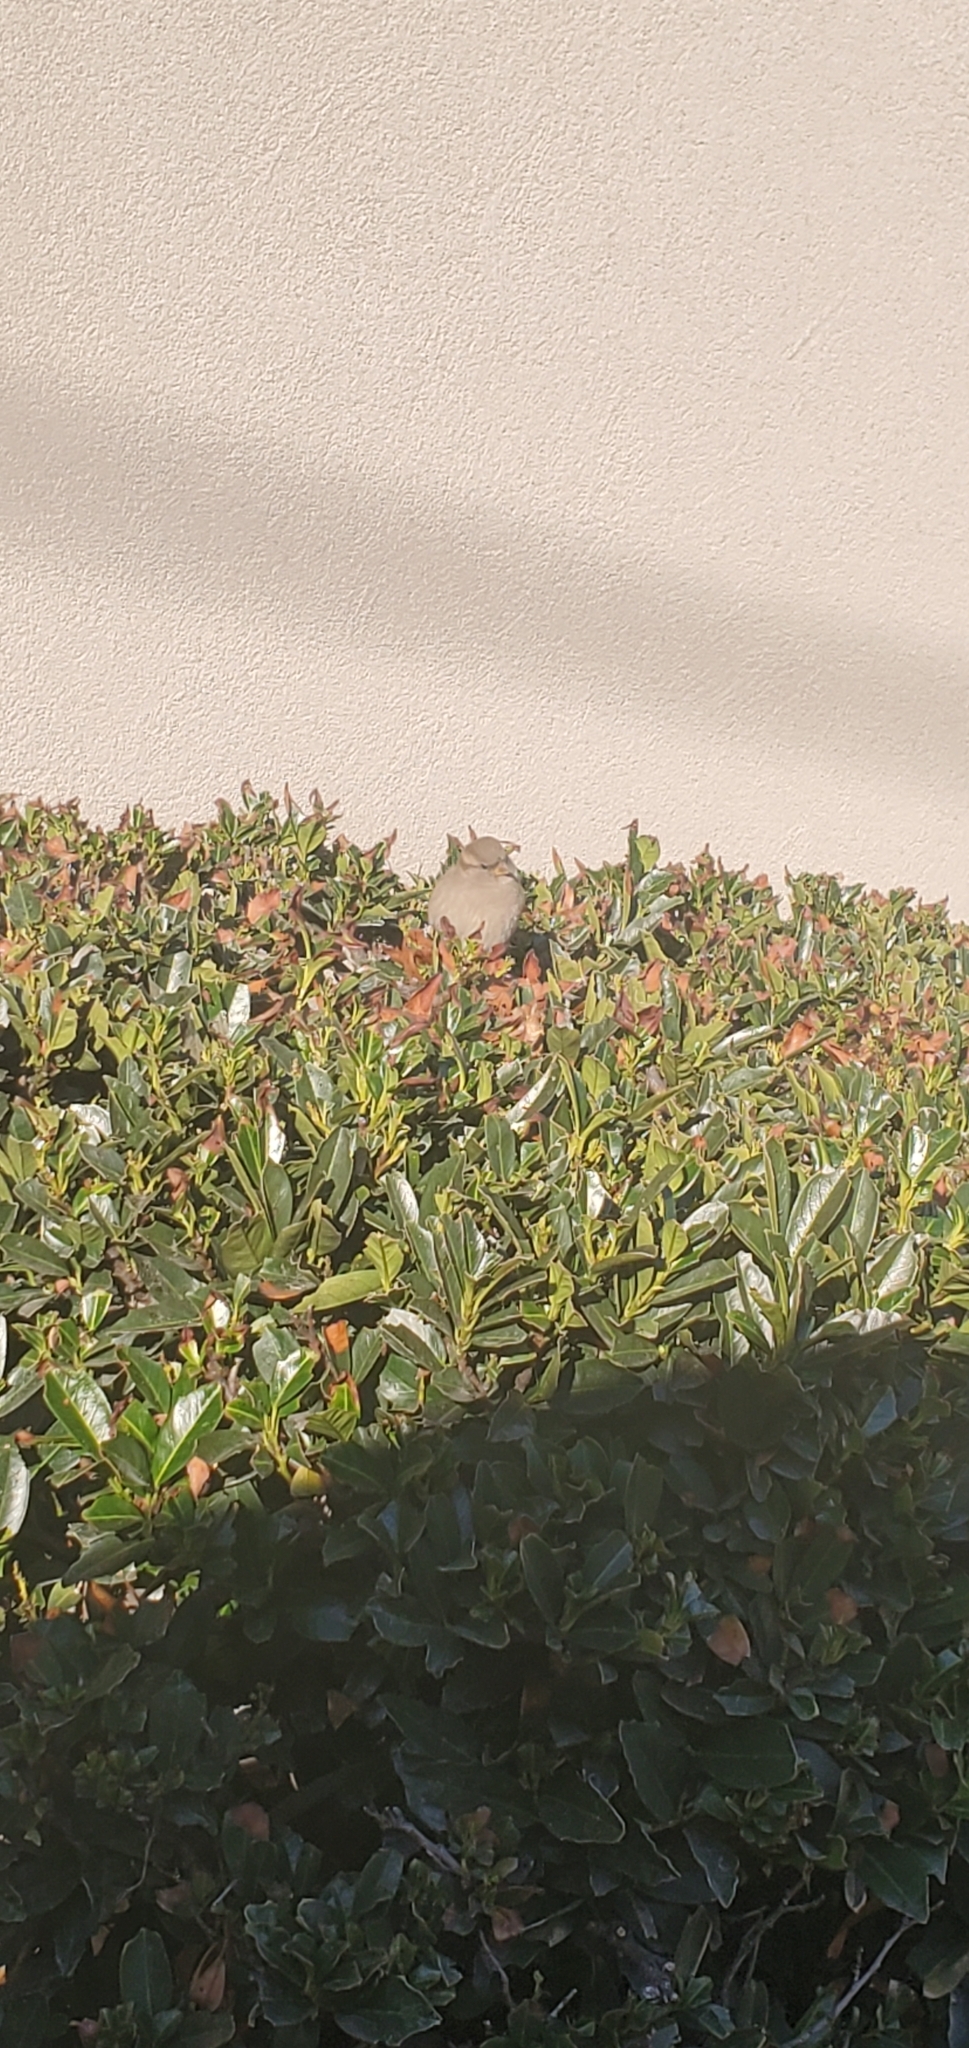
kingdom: Animalia
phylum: Chordata
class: Aves
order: Passeriformes
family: Passeridae
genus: Passer
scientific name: Passer domesticus
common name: House sparrow
